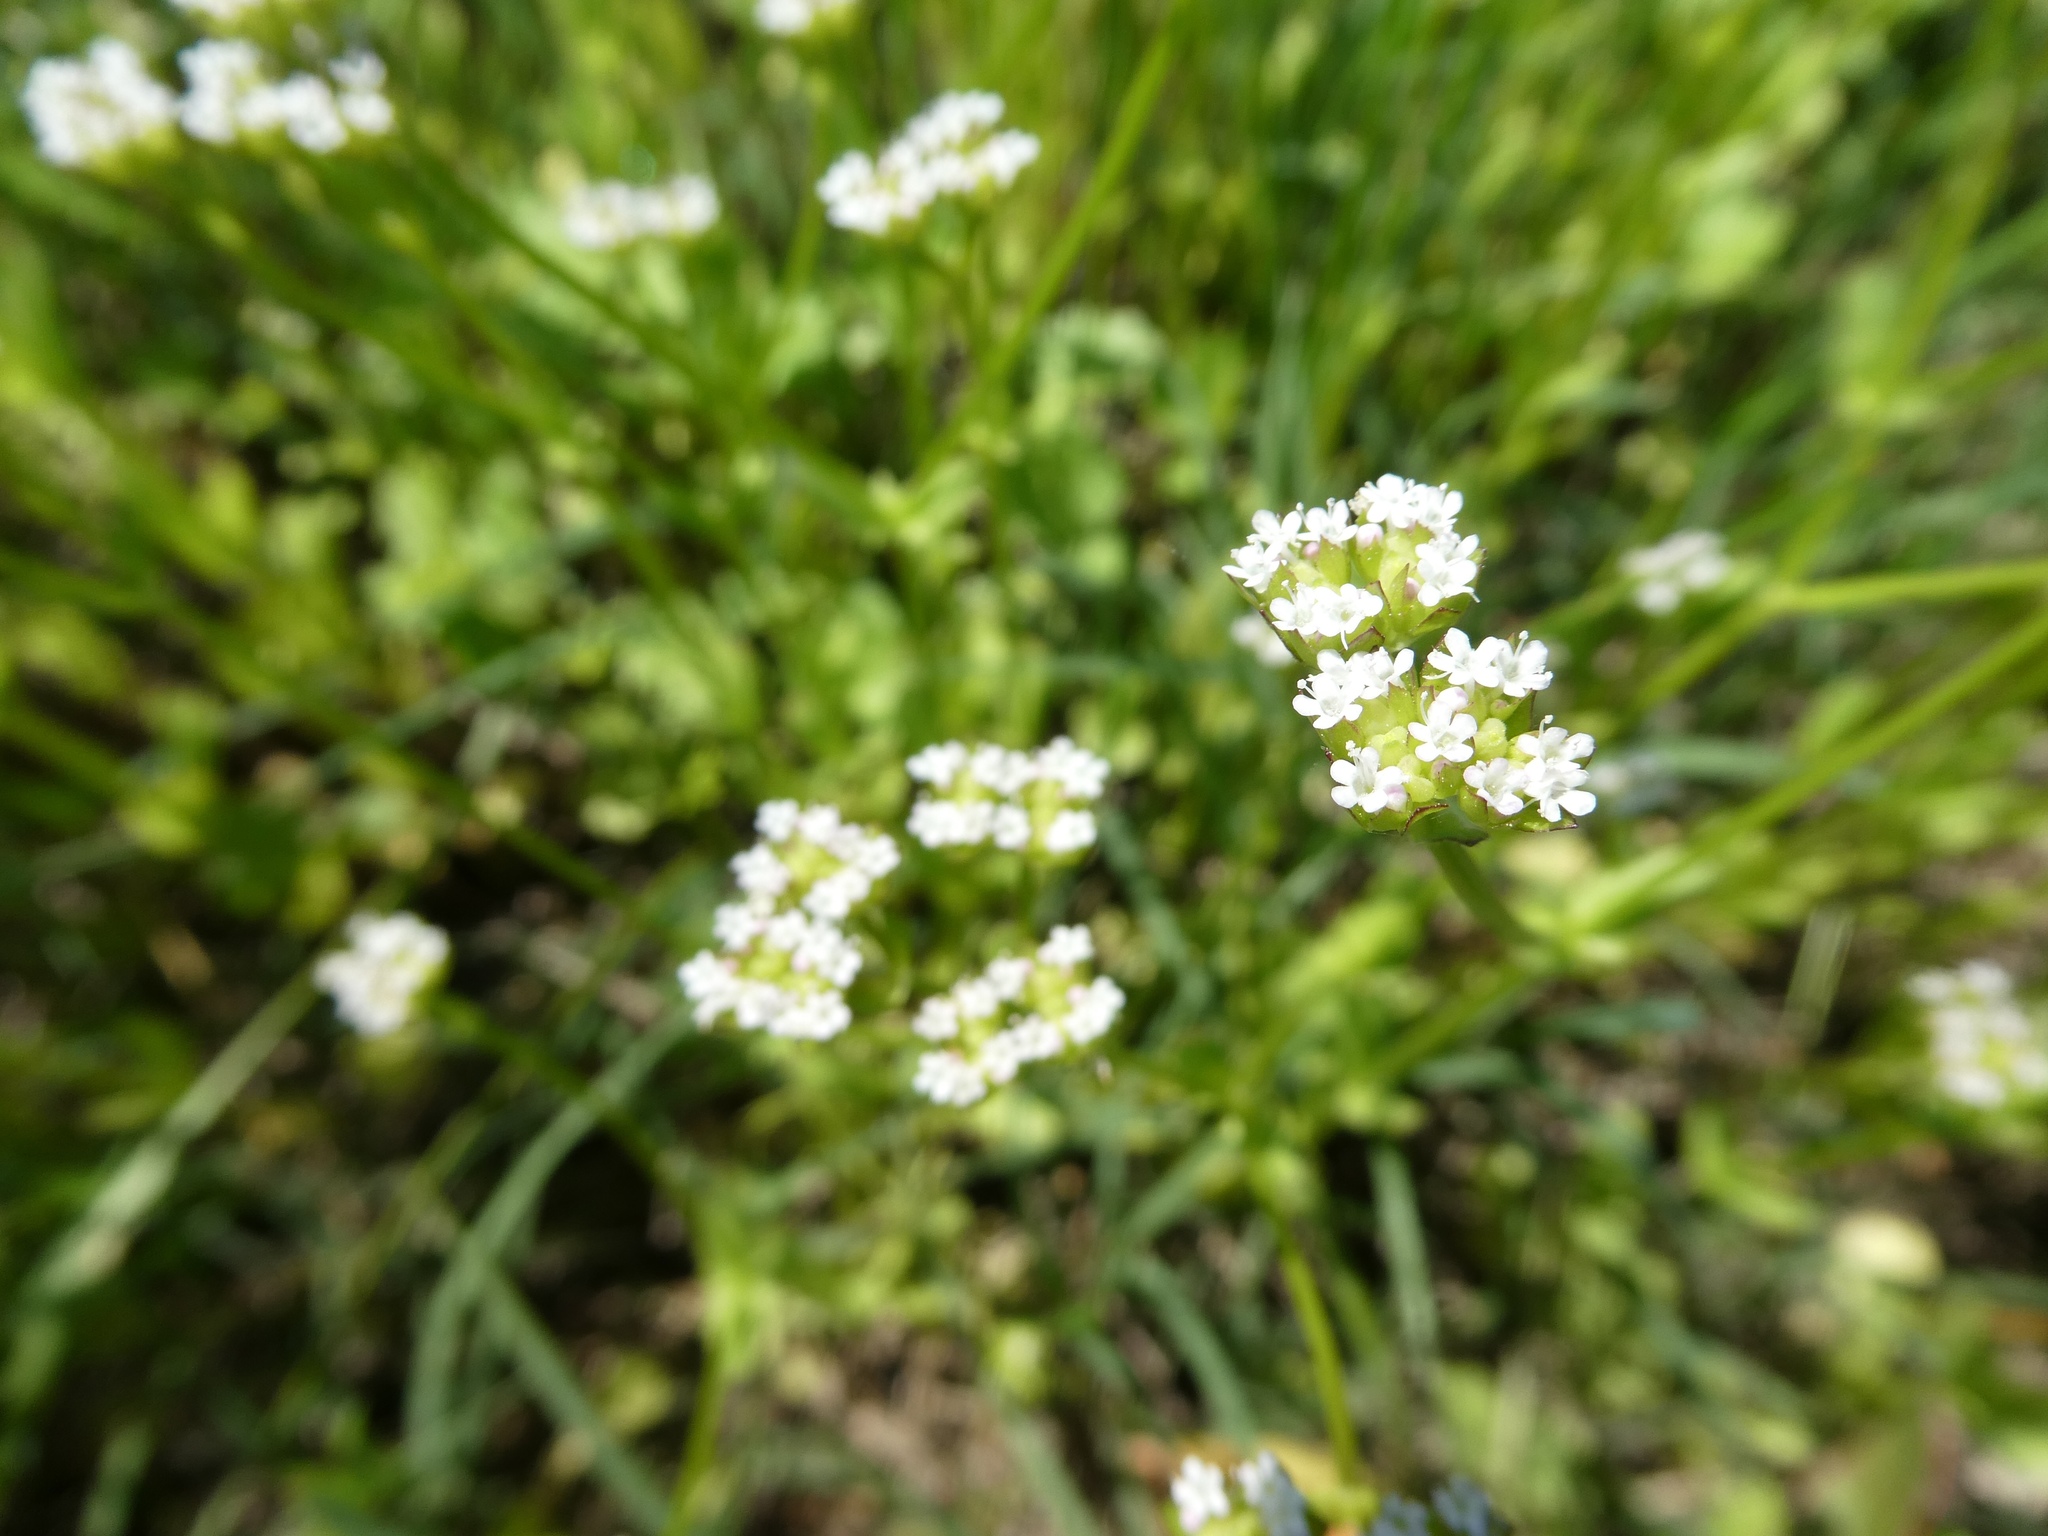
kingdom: Plantae
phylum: Tracheophyta
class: Magnoliopsida
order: Dipsacales
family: Caprifoliaceae
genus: Valerianella
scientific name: Valerianella radiata
